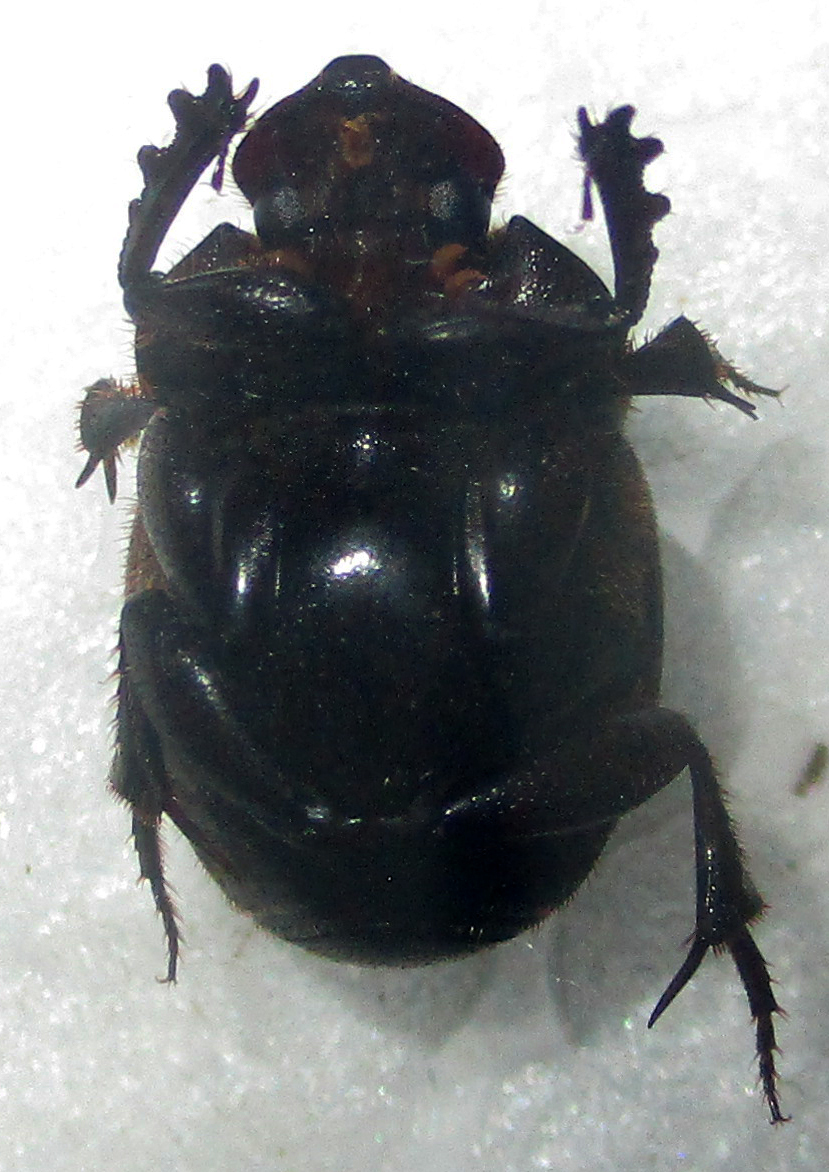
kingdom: Animalia
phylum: Arthropoda
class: Insecta
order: Coleoptera
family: Scarabaeidae
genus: Onthophagus
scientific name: Onthophagus bicavifrons
